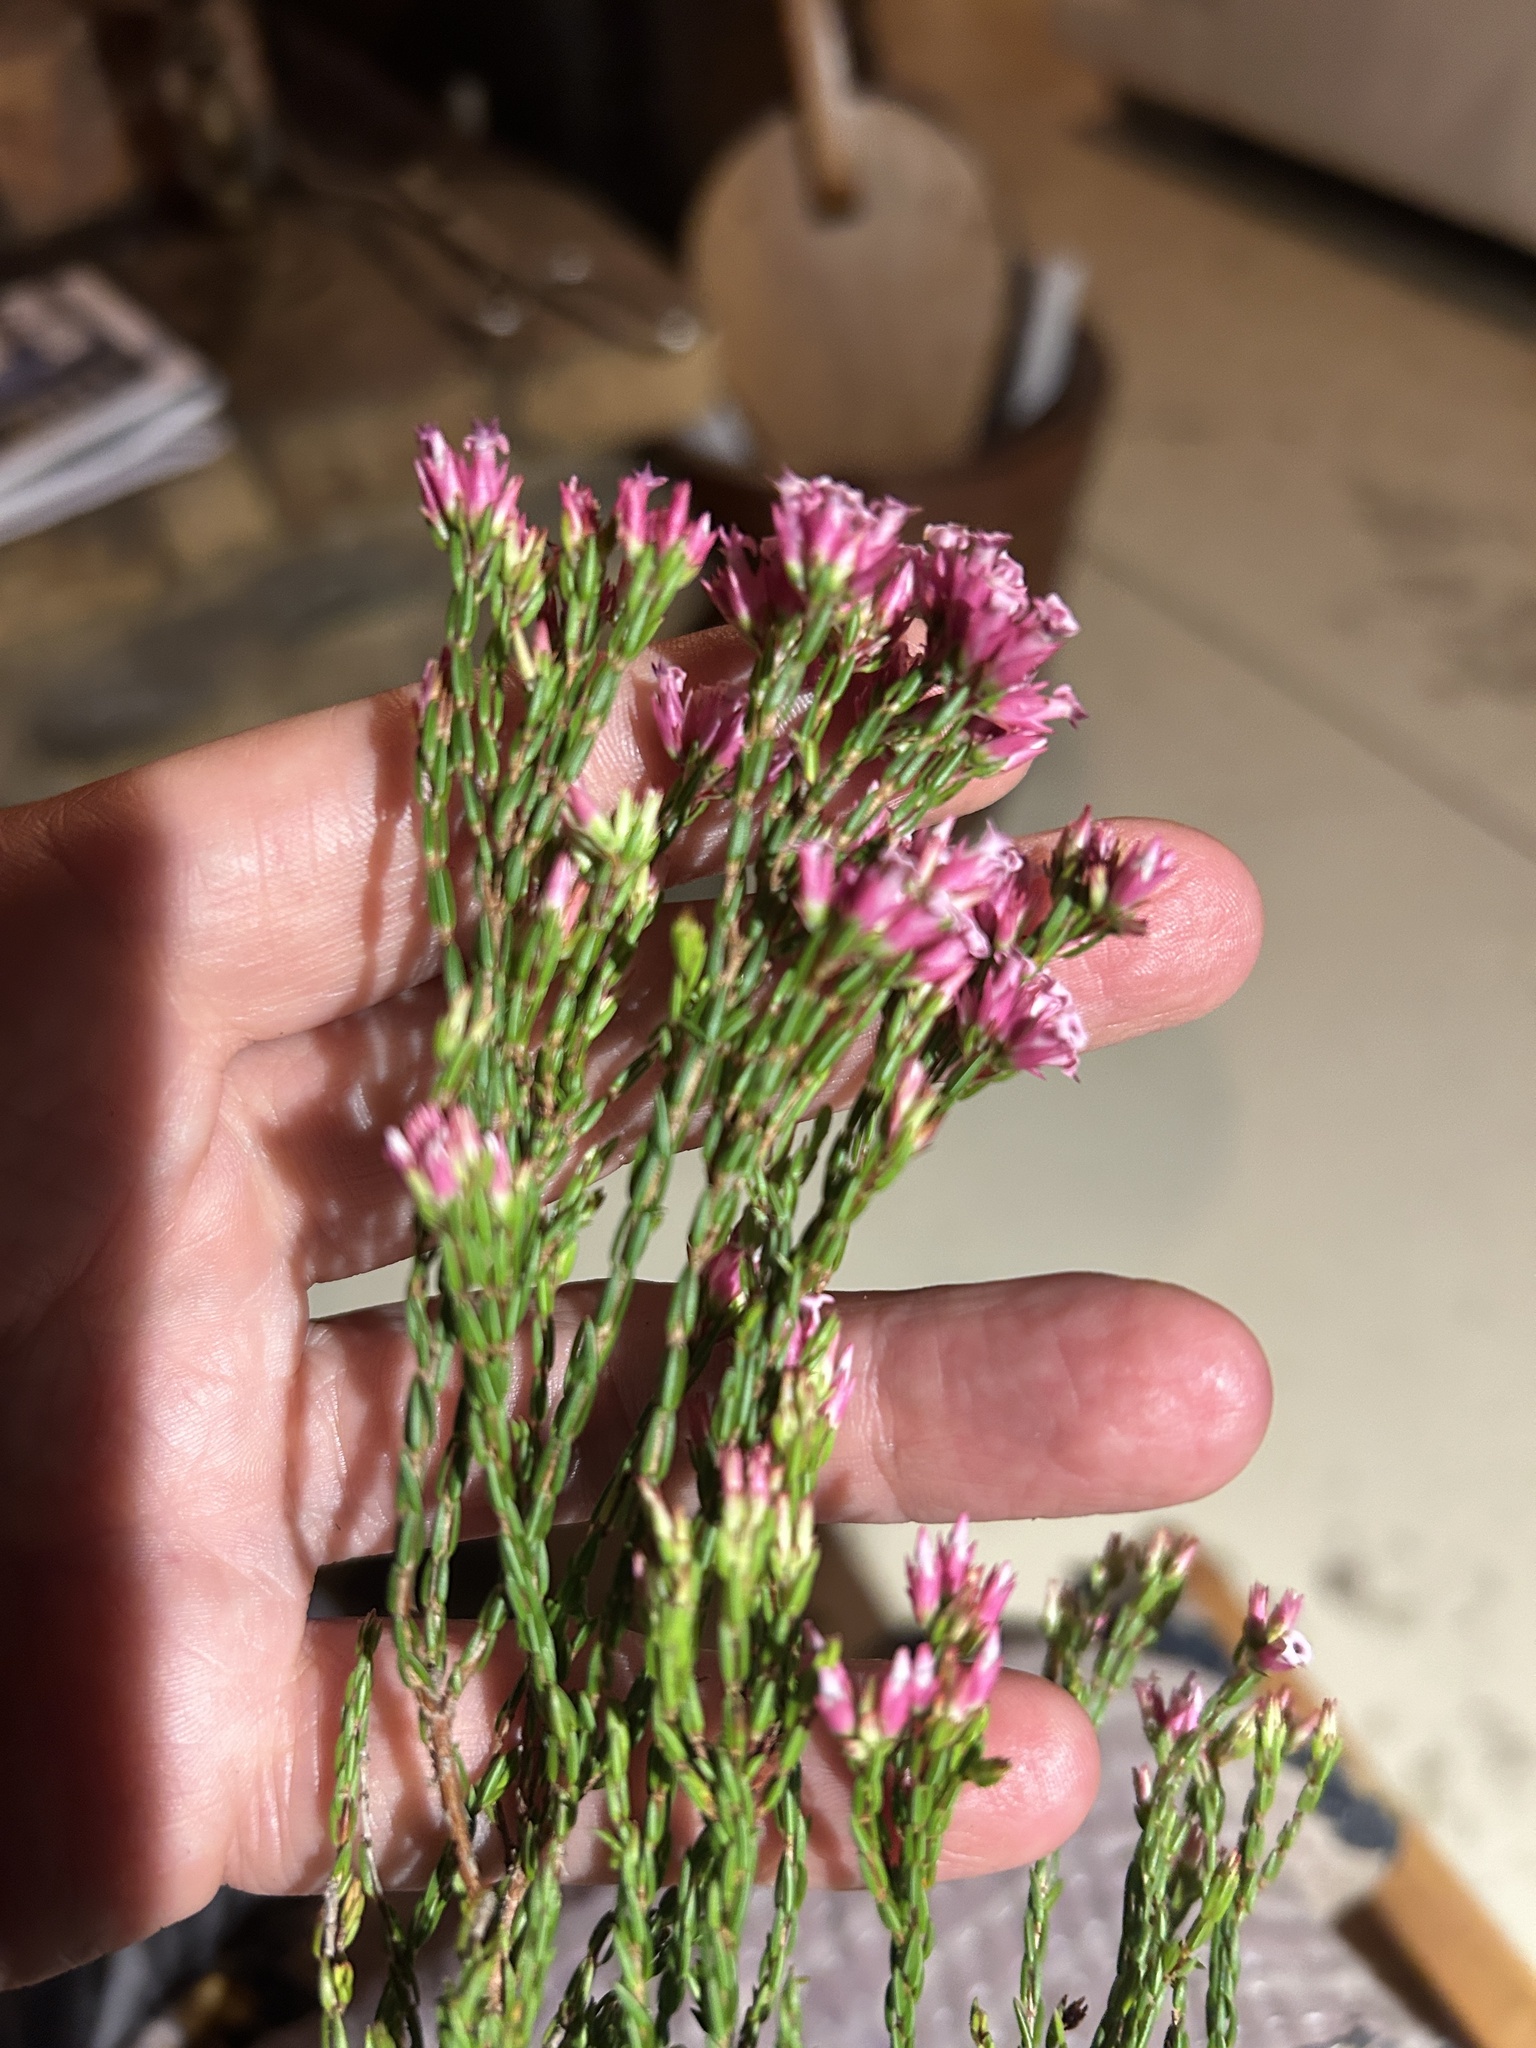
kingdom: Plantae
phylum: Tracheophyta
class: Magnoliopsida
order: Ericales
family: Ericaceae
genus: Erica
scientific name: Erica bracteolaris
